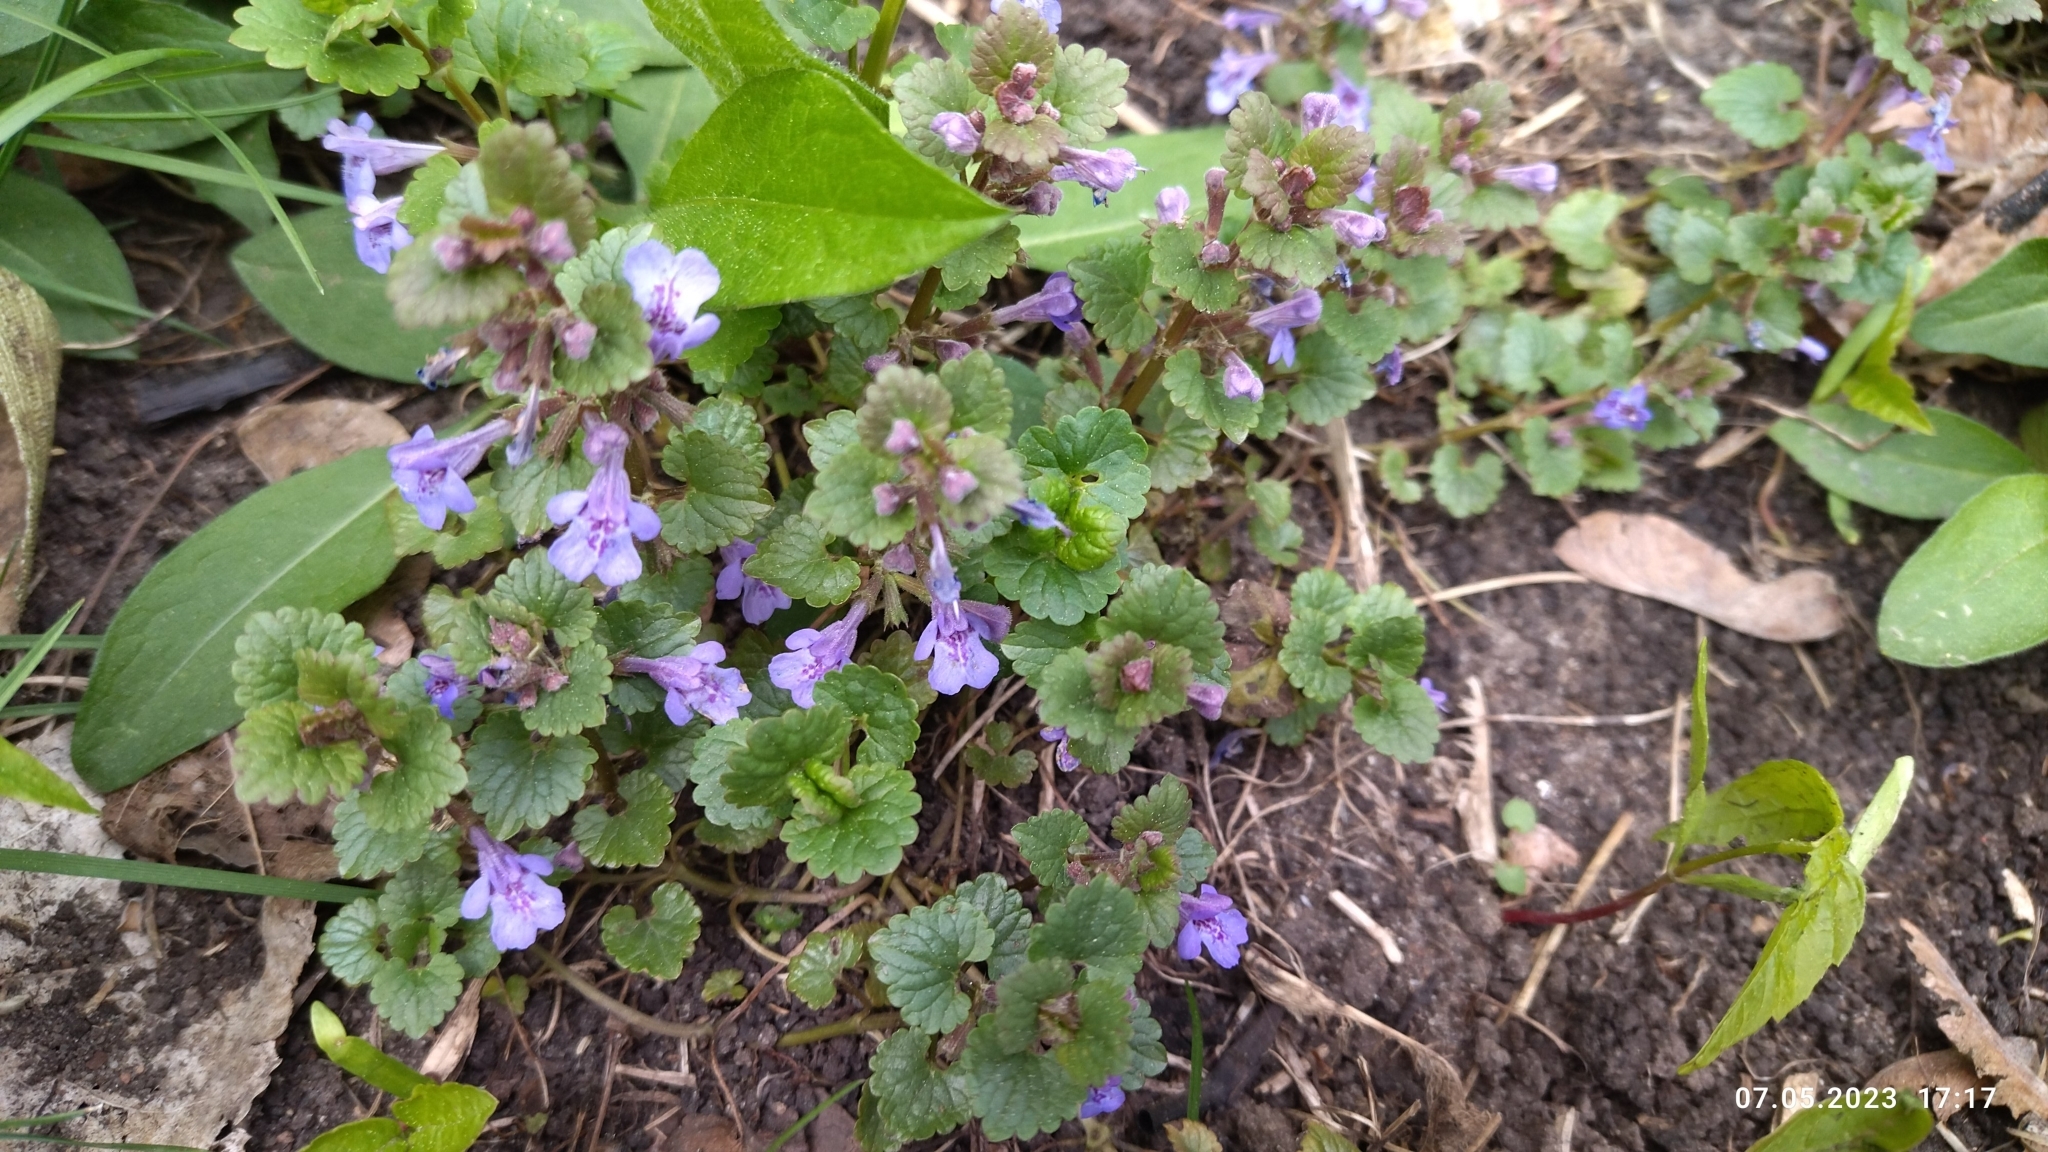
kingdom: Plantae
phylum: Tracheophyta
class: Magnoliopsida
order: Lamiales
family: Lamiaceae
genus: Glechoma
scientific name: Glechoma hederacea
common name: Ground ivy
